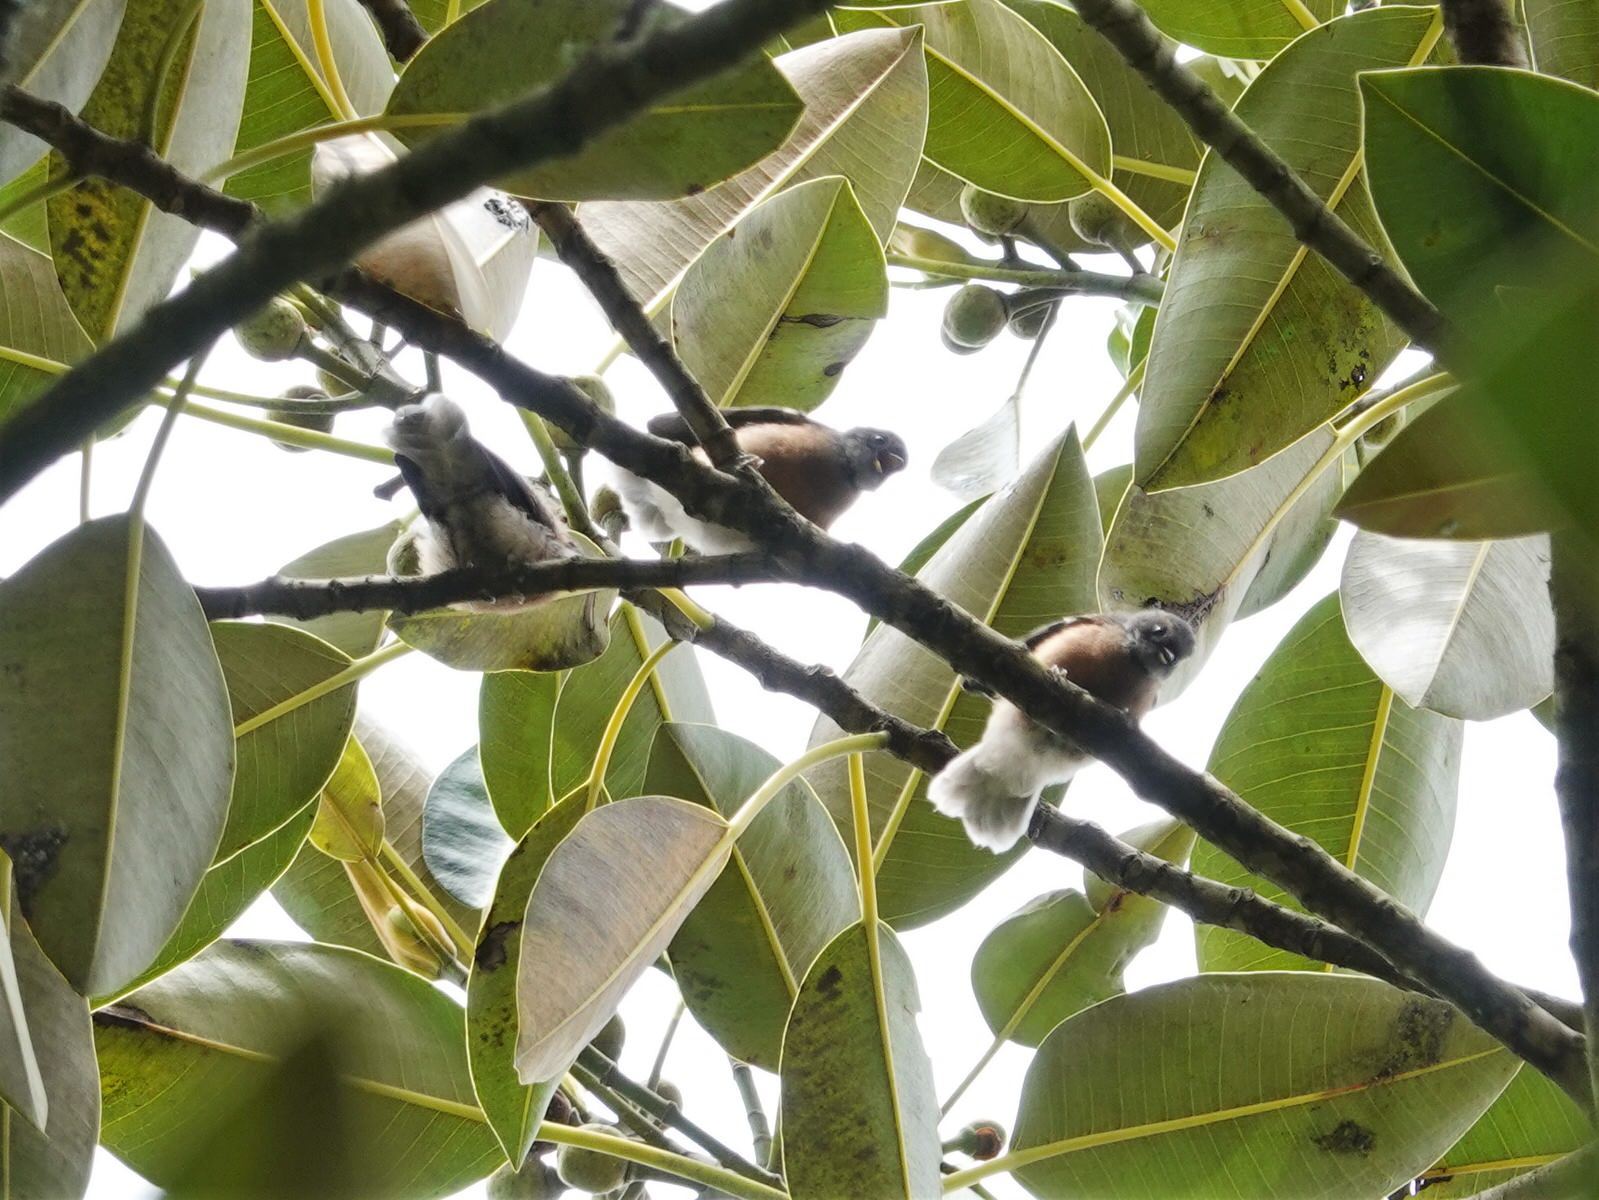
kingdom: Animalia
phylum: Chordata
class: Aves
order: Passeriformes
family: Rhipiduridae
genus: Rhipidura
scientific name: Rhipidura fuliginosa
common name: New zealand fantail
